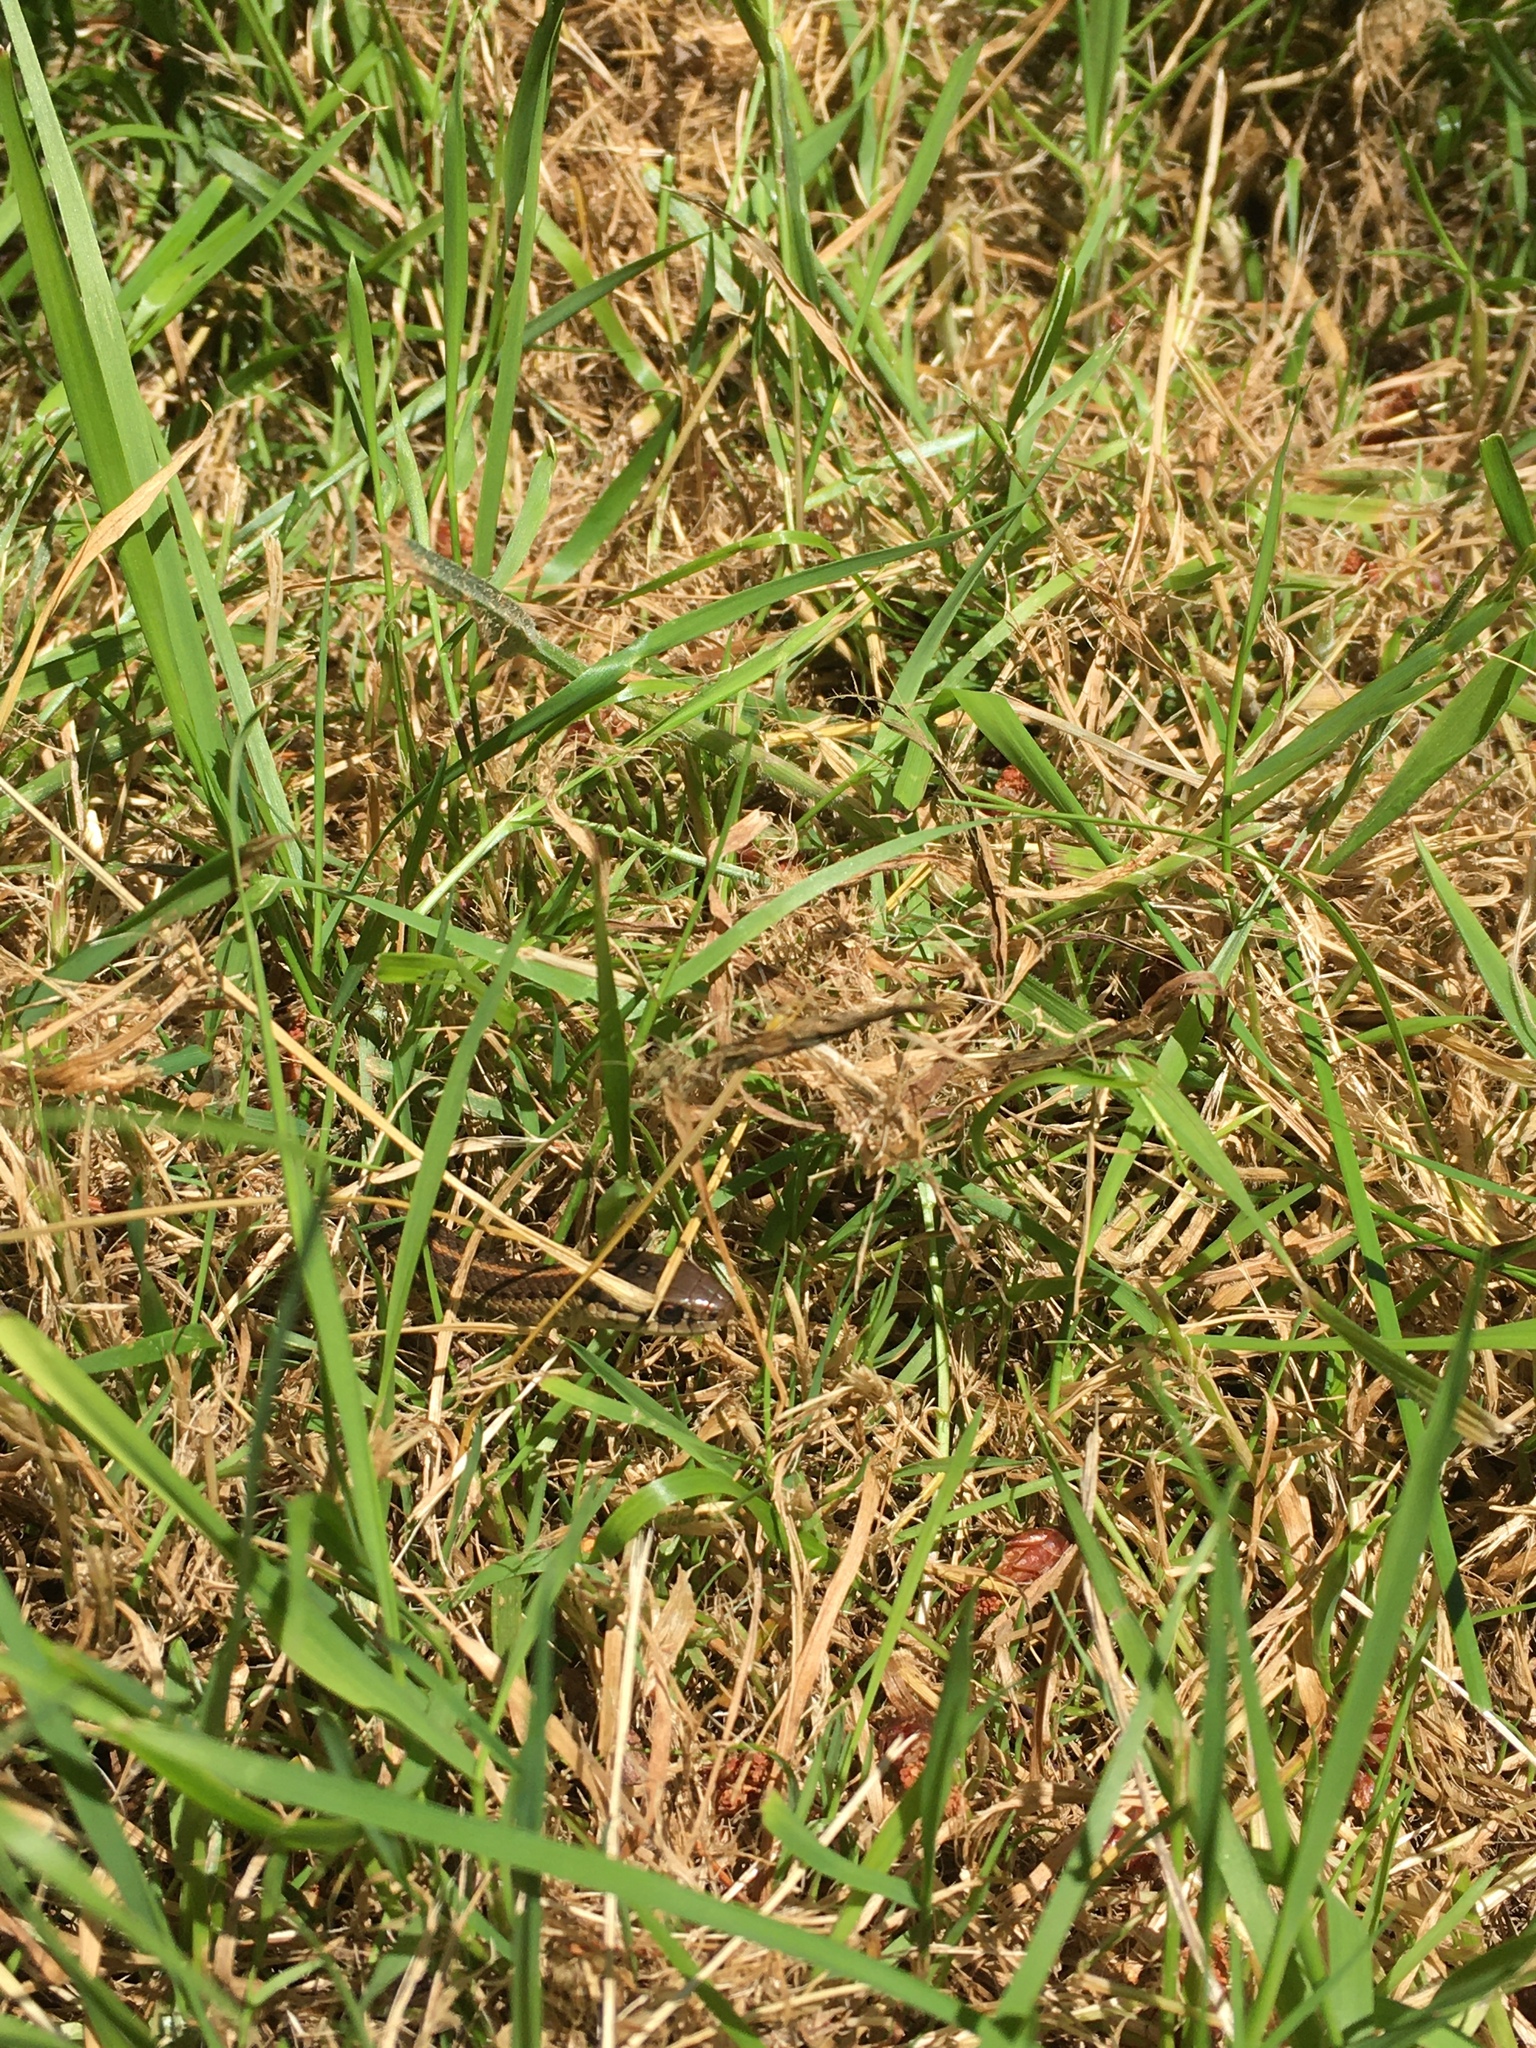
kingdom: Animalia
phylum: Chordata
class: Squamata
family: Colubridae
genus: Thamnophis
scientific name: Thamnophis ordinoides
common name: Northwestern garter snake
